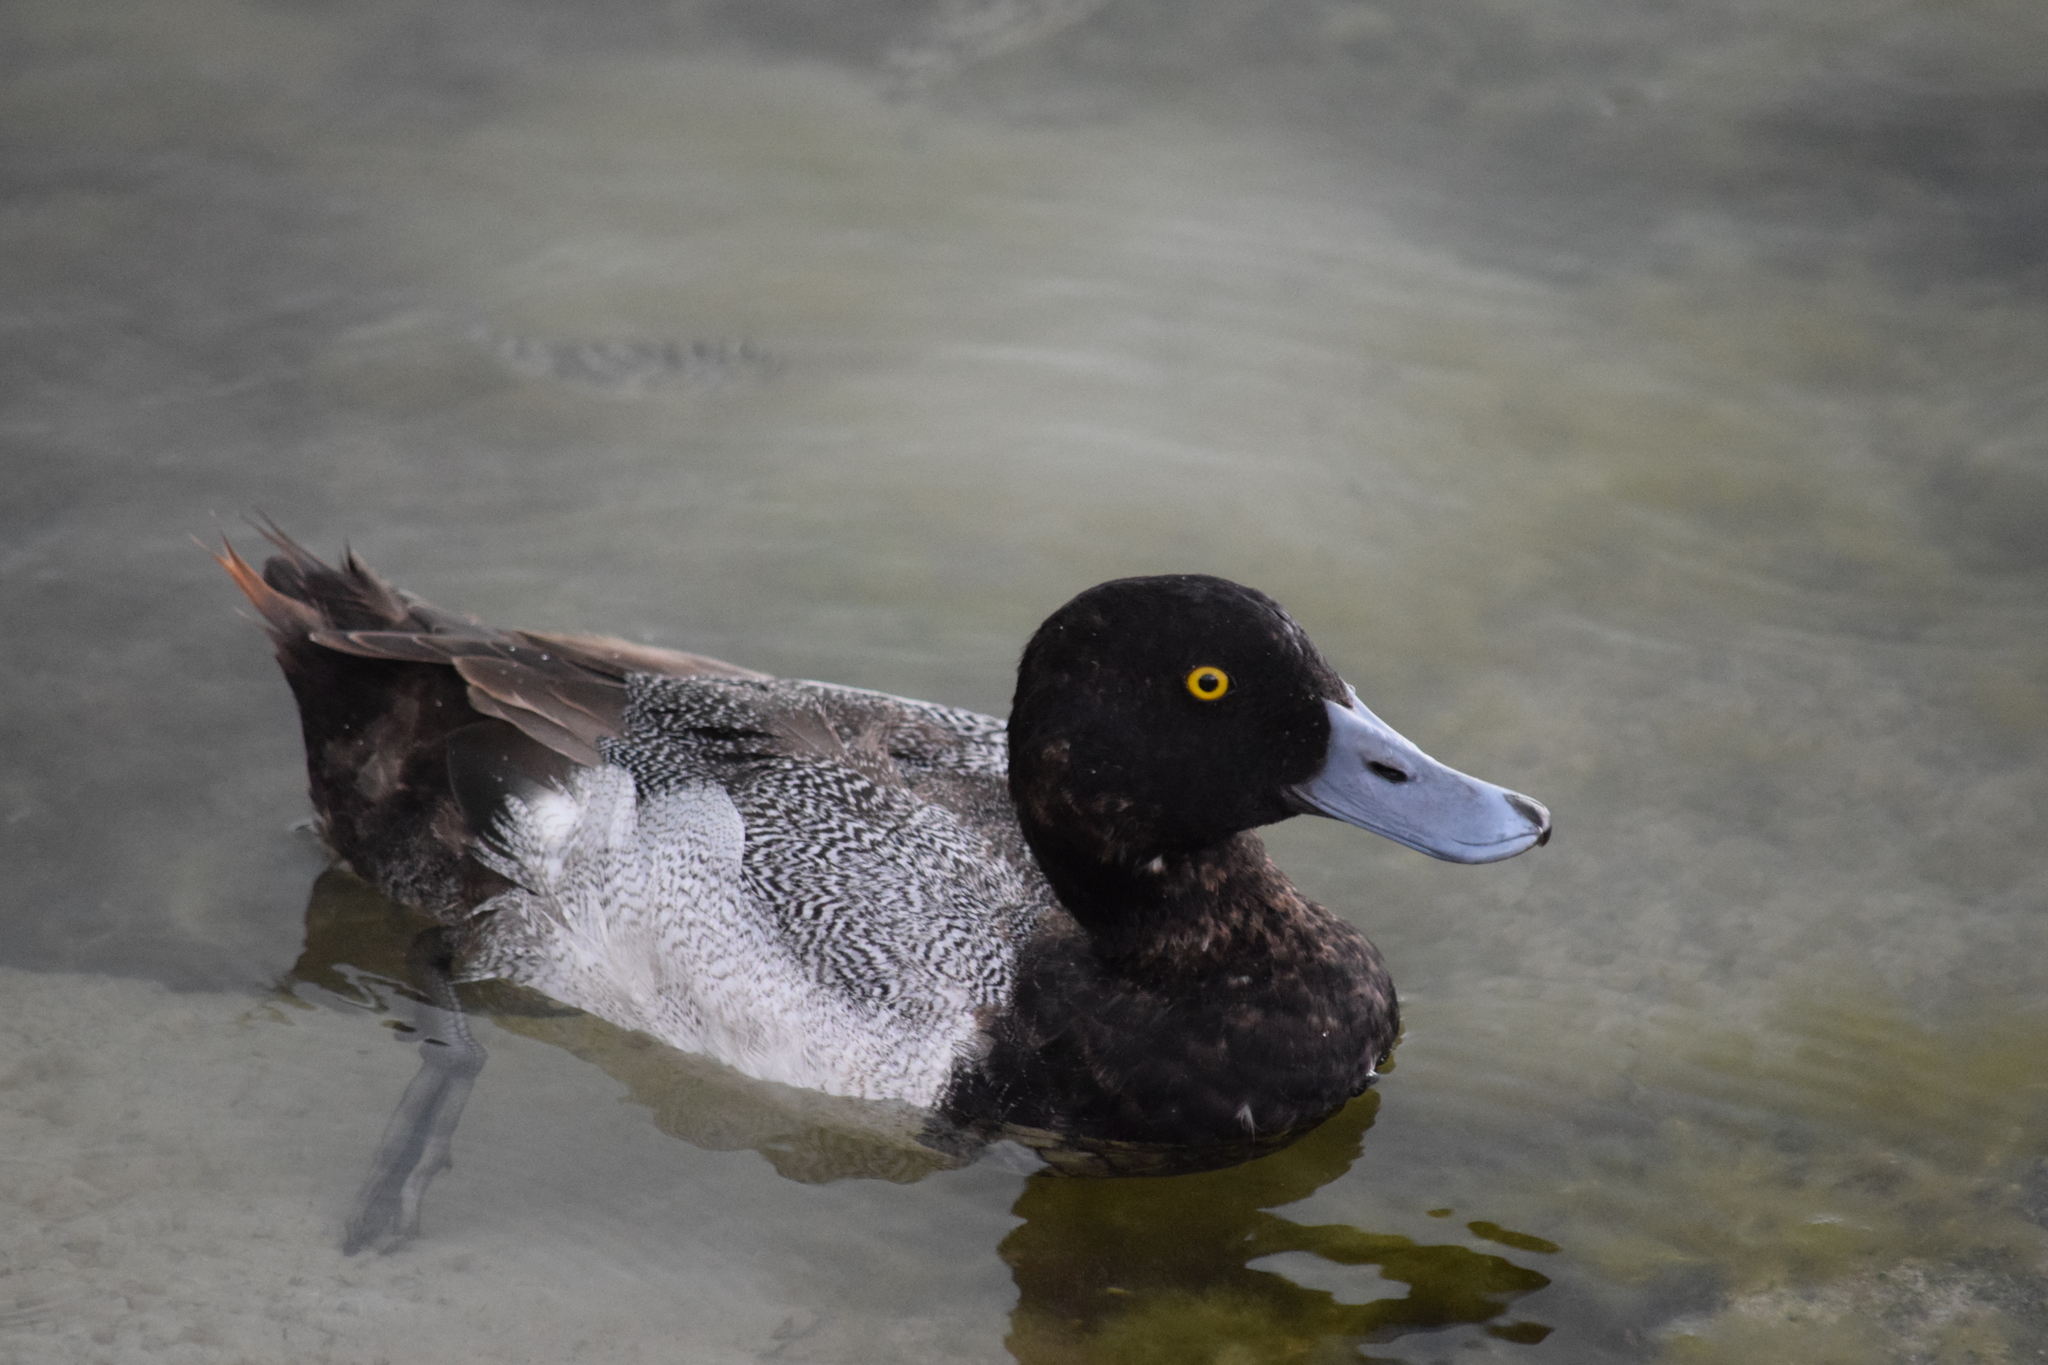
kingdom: Animalia
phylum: Chordata
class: Aves
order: Anseriformes
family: Anatidae
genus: Aythya
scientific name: Aythya affinis
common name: Lesser scaup
